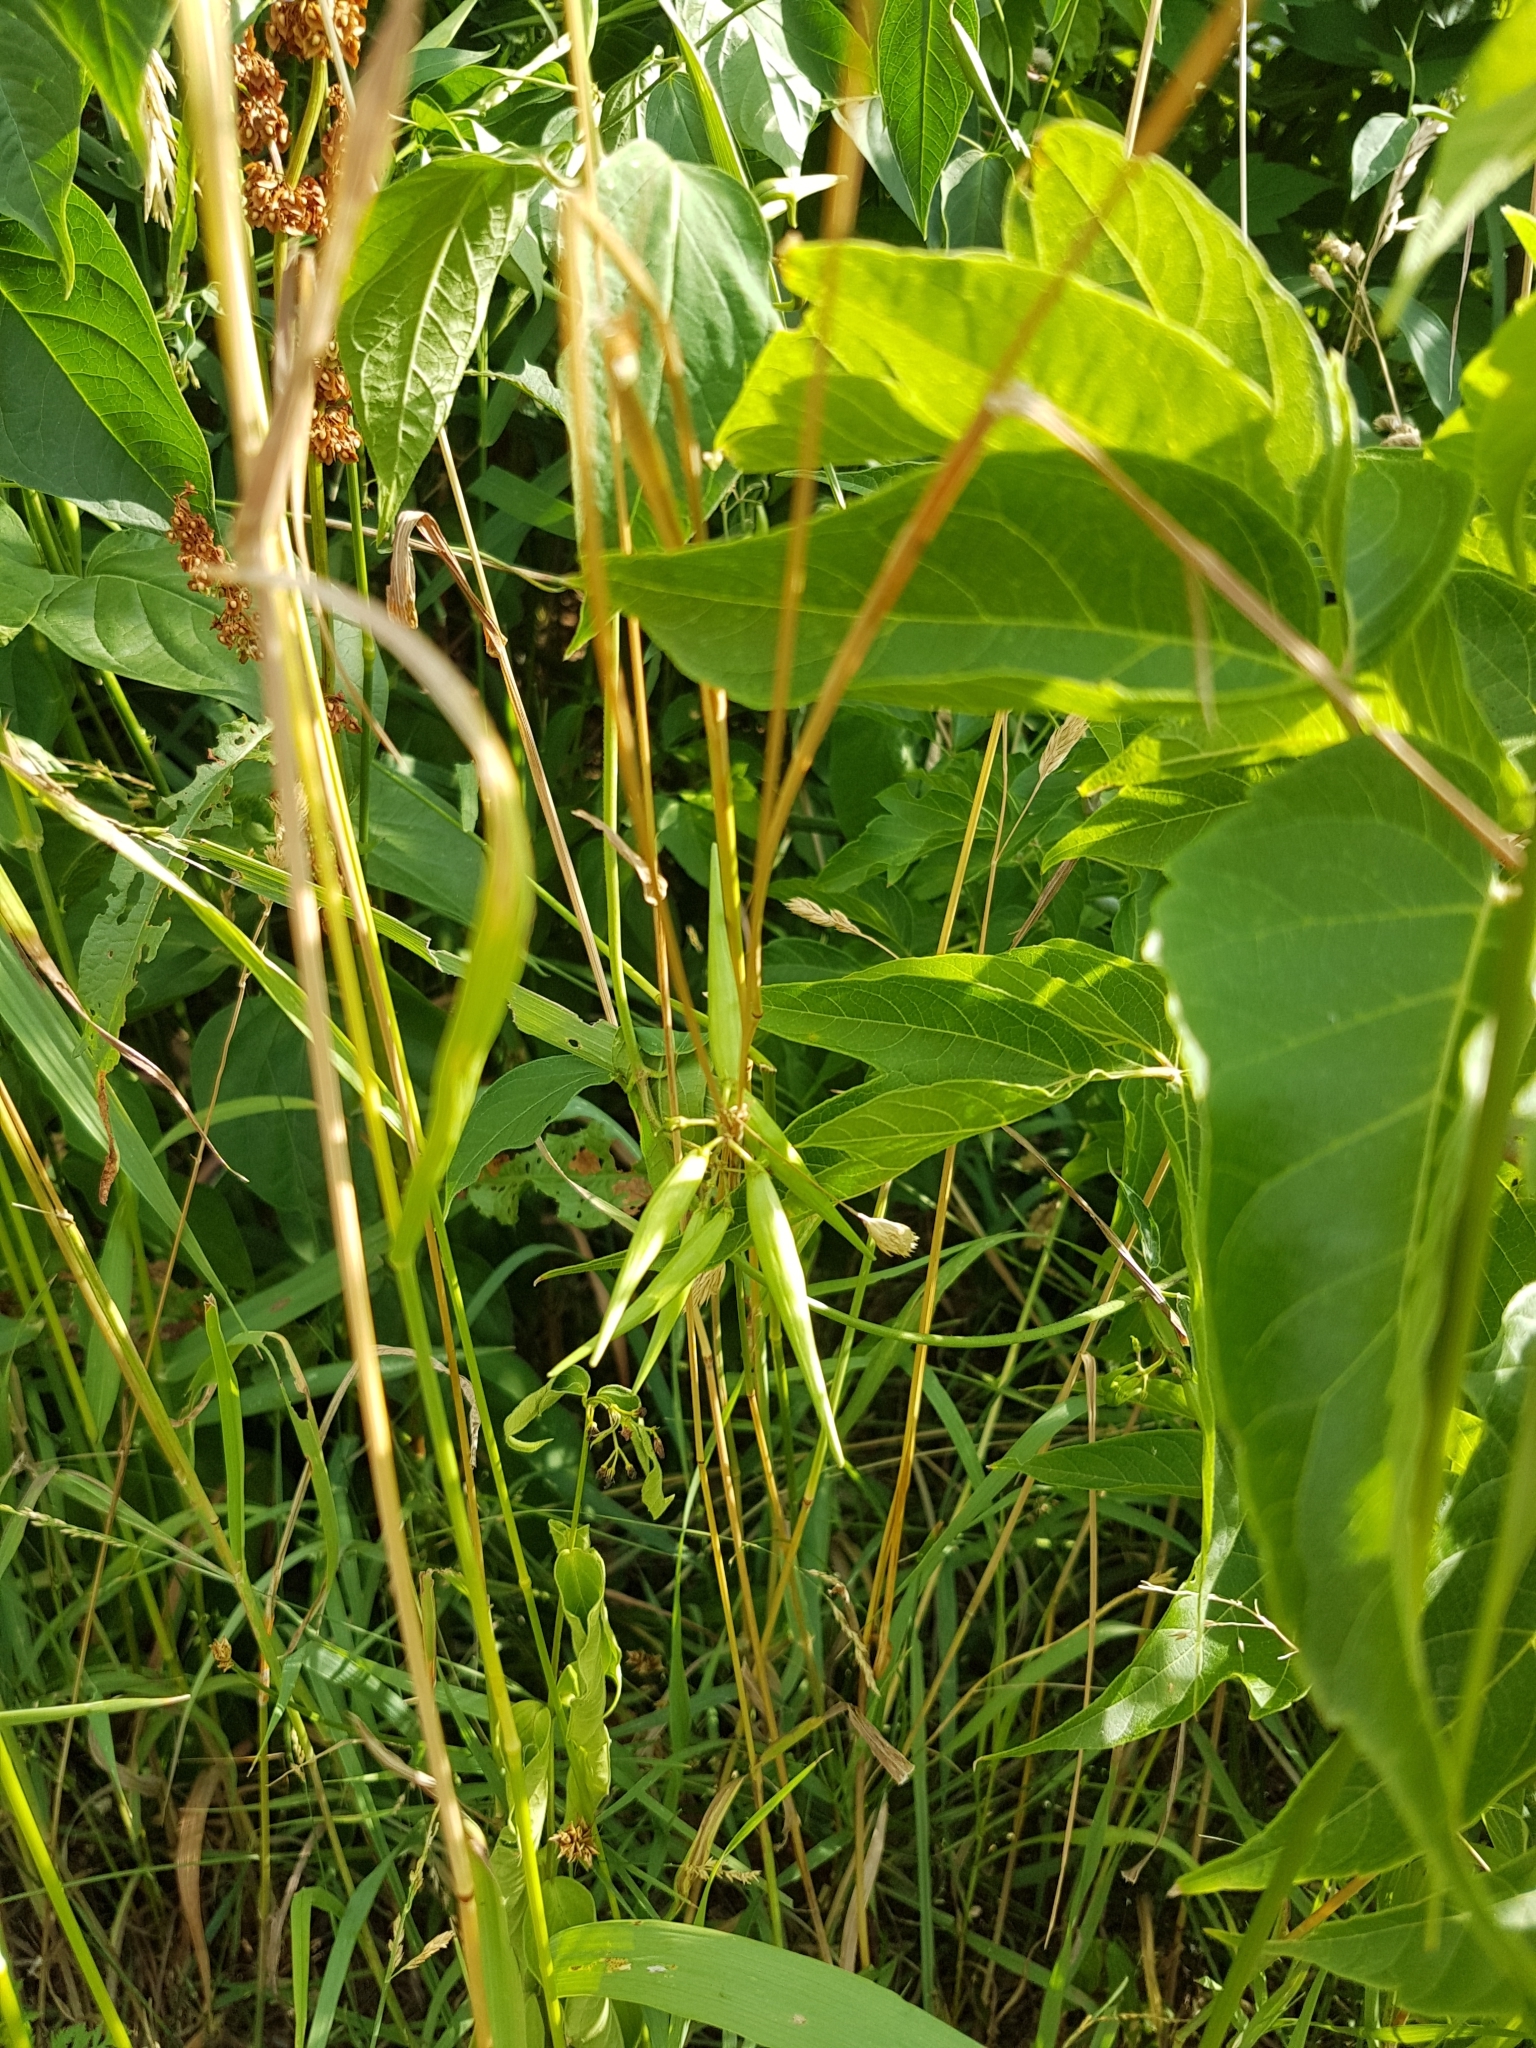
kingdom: Plantae
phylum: Tracheophyta
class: Magnoliopsida
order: Gentianales
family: Apocynaceae
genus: Vincetoxicum
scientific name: Vincetoxicum rossicum
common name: Dog-strangling vine
